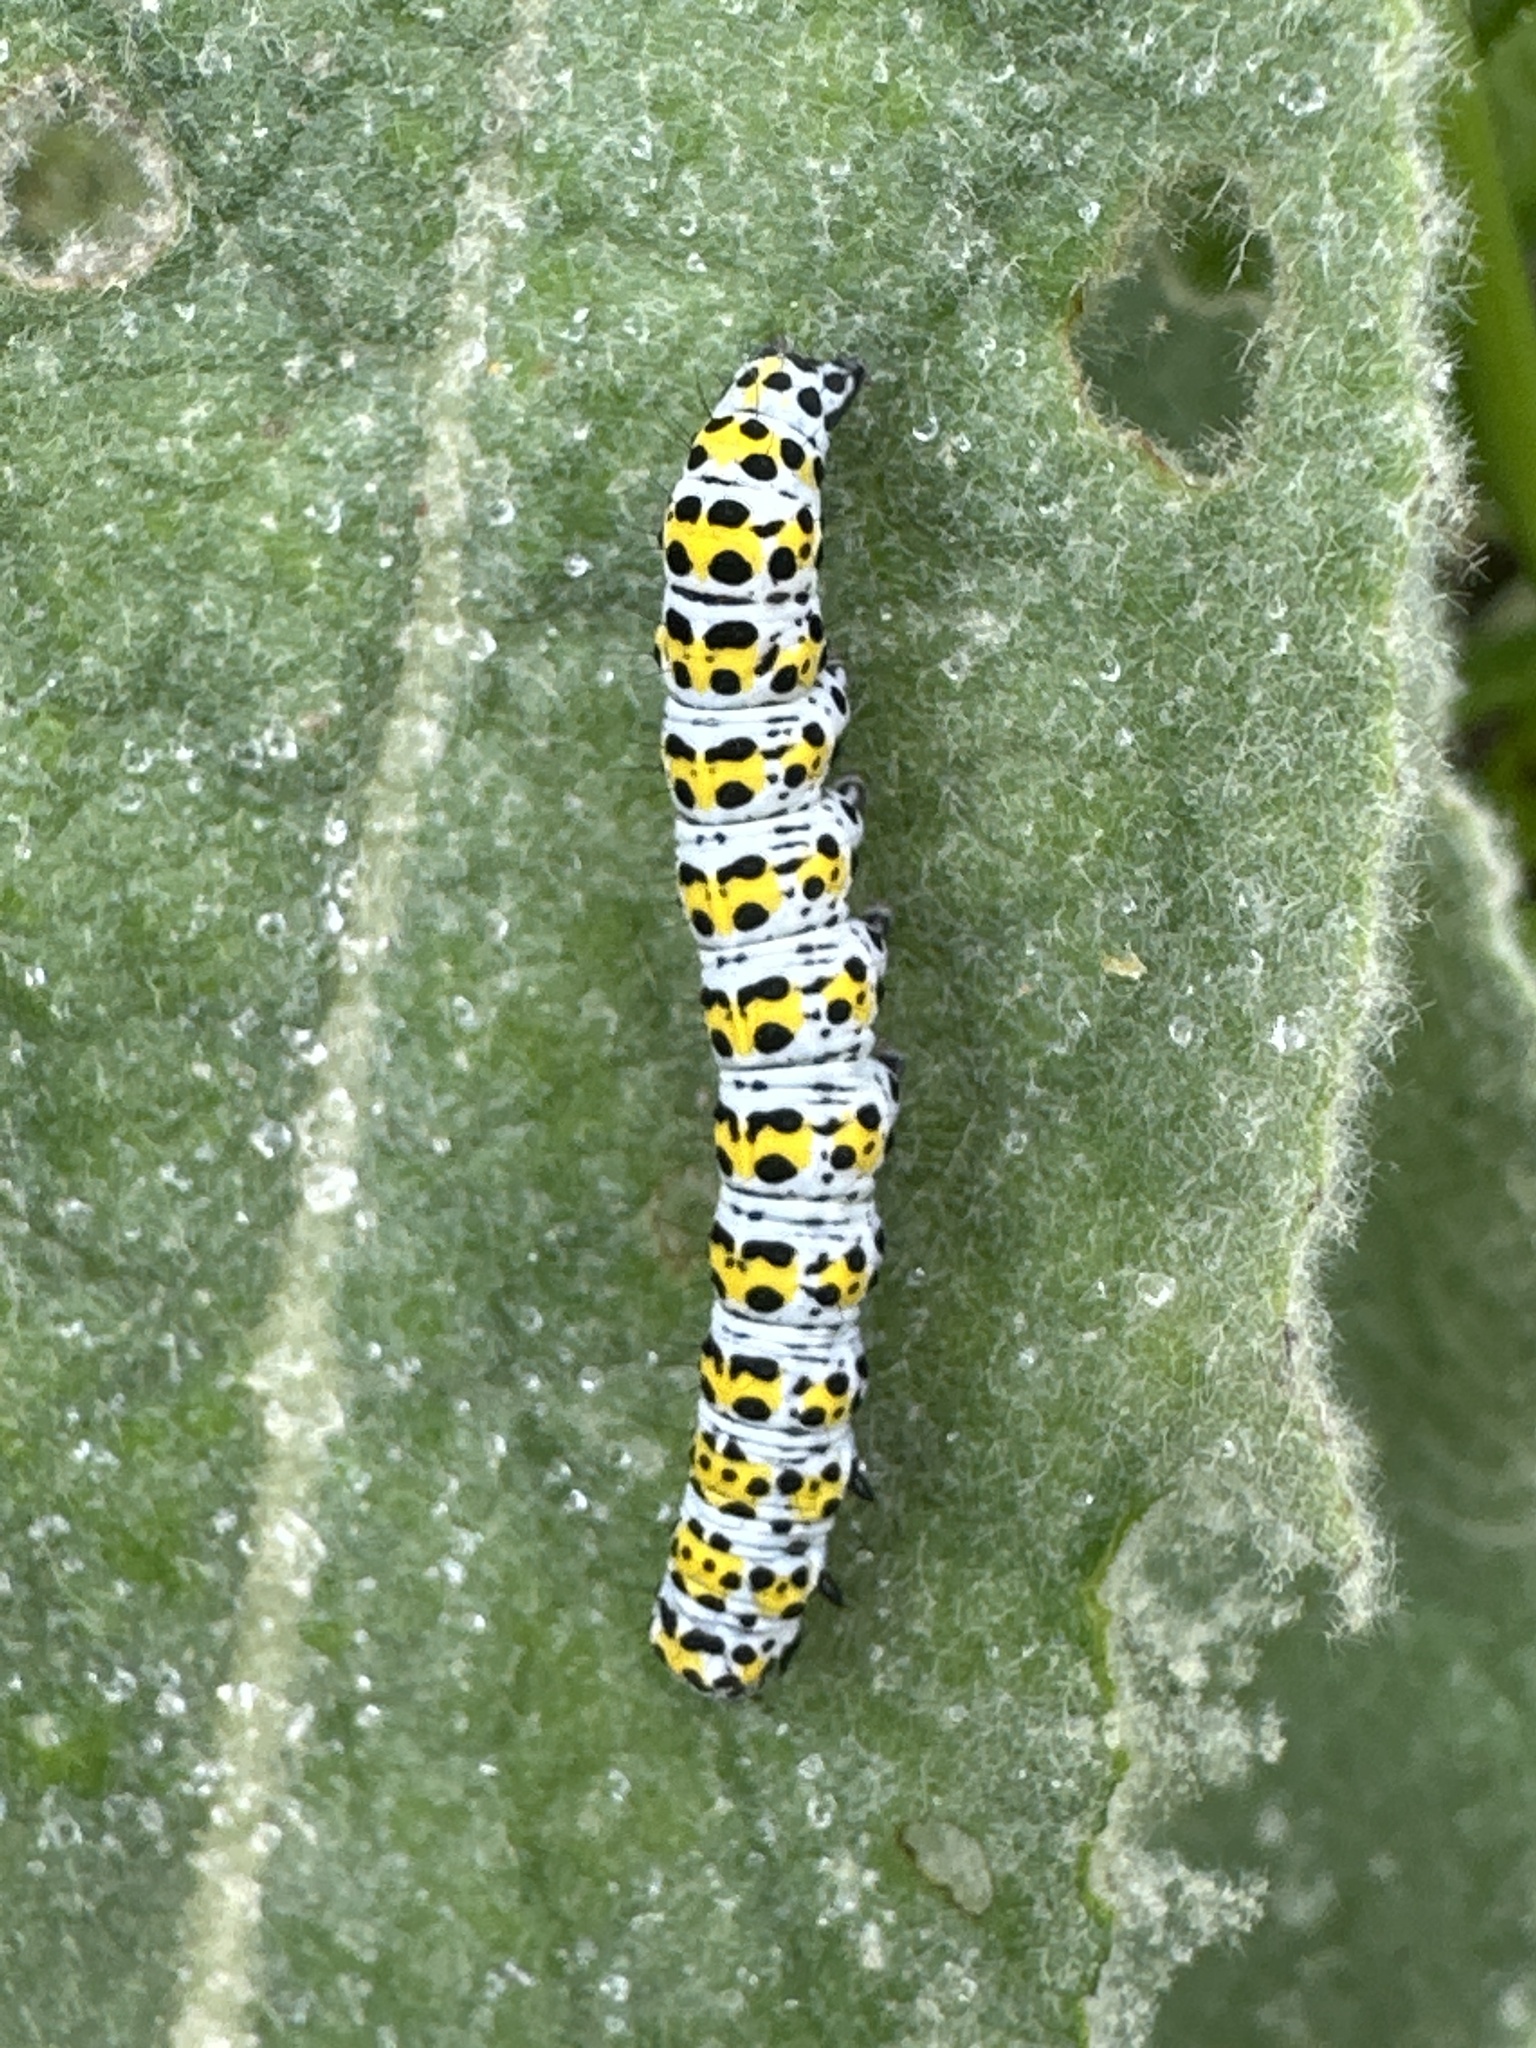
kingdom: Animalia
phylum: Arthropoda
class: Insecta
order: Lepidoptera
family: Noctuidae
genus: Cucullia
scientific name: Cucullia verbasci
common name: Mullein
